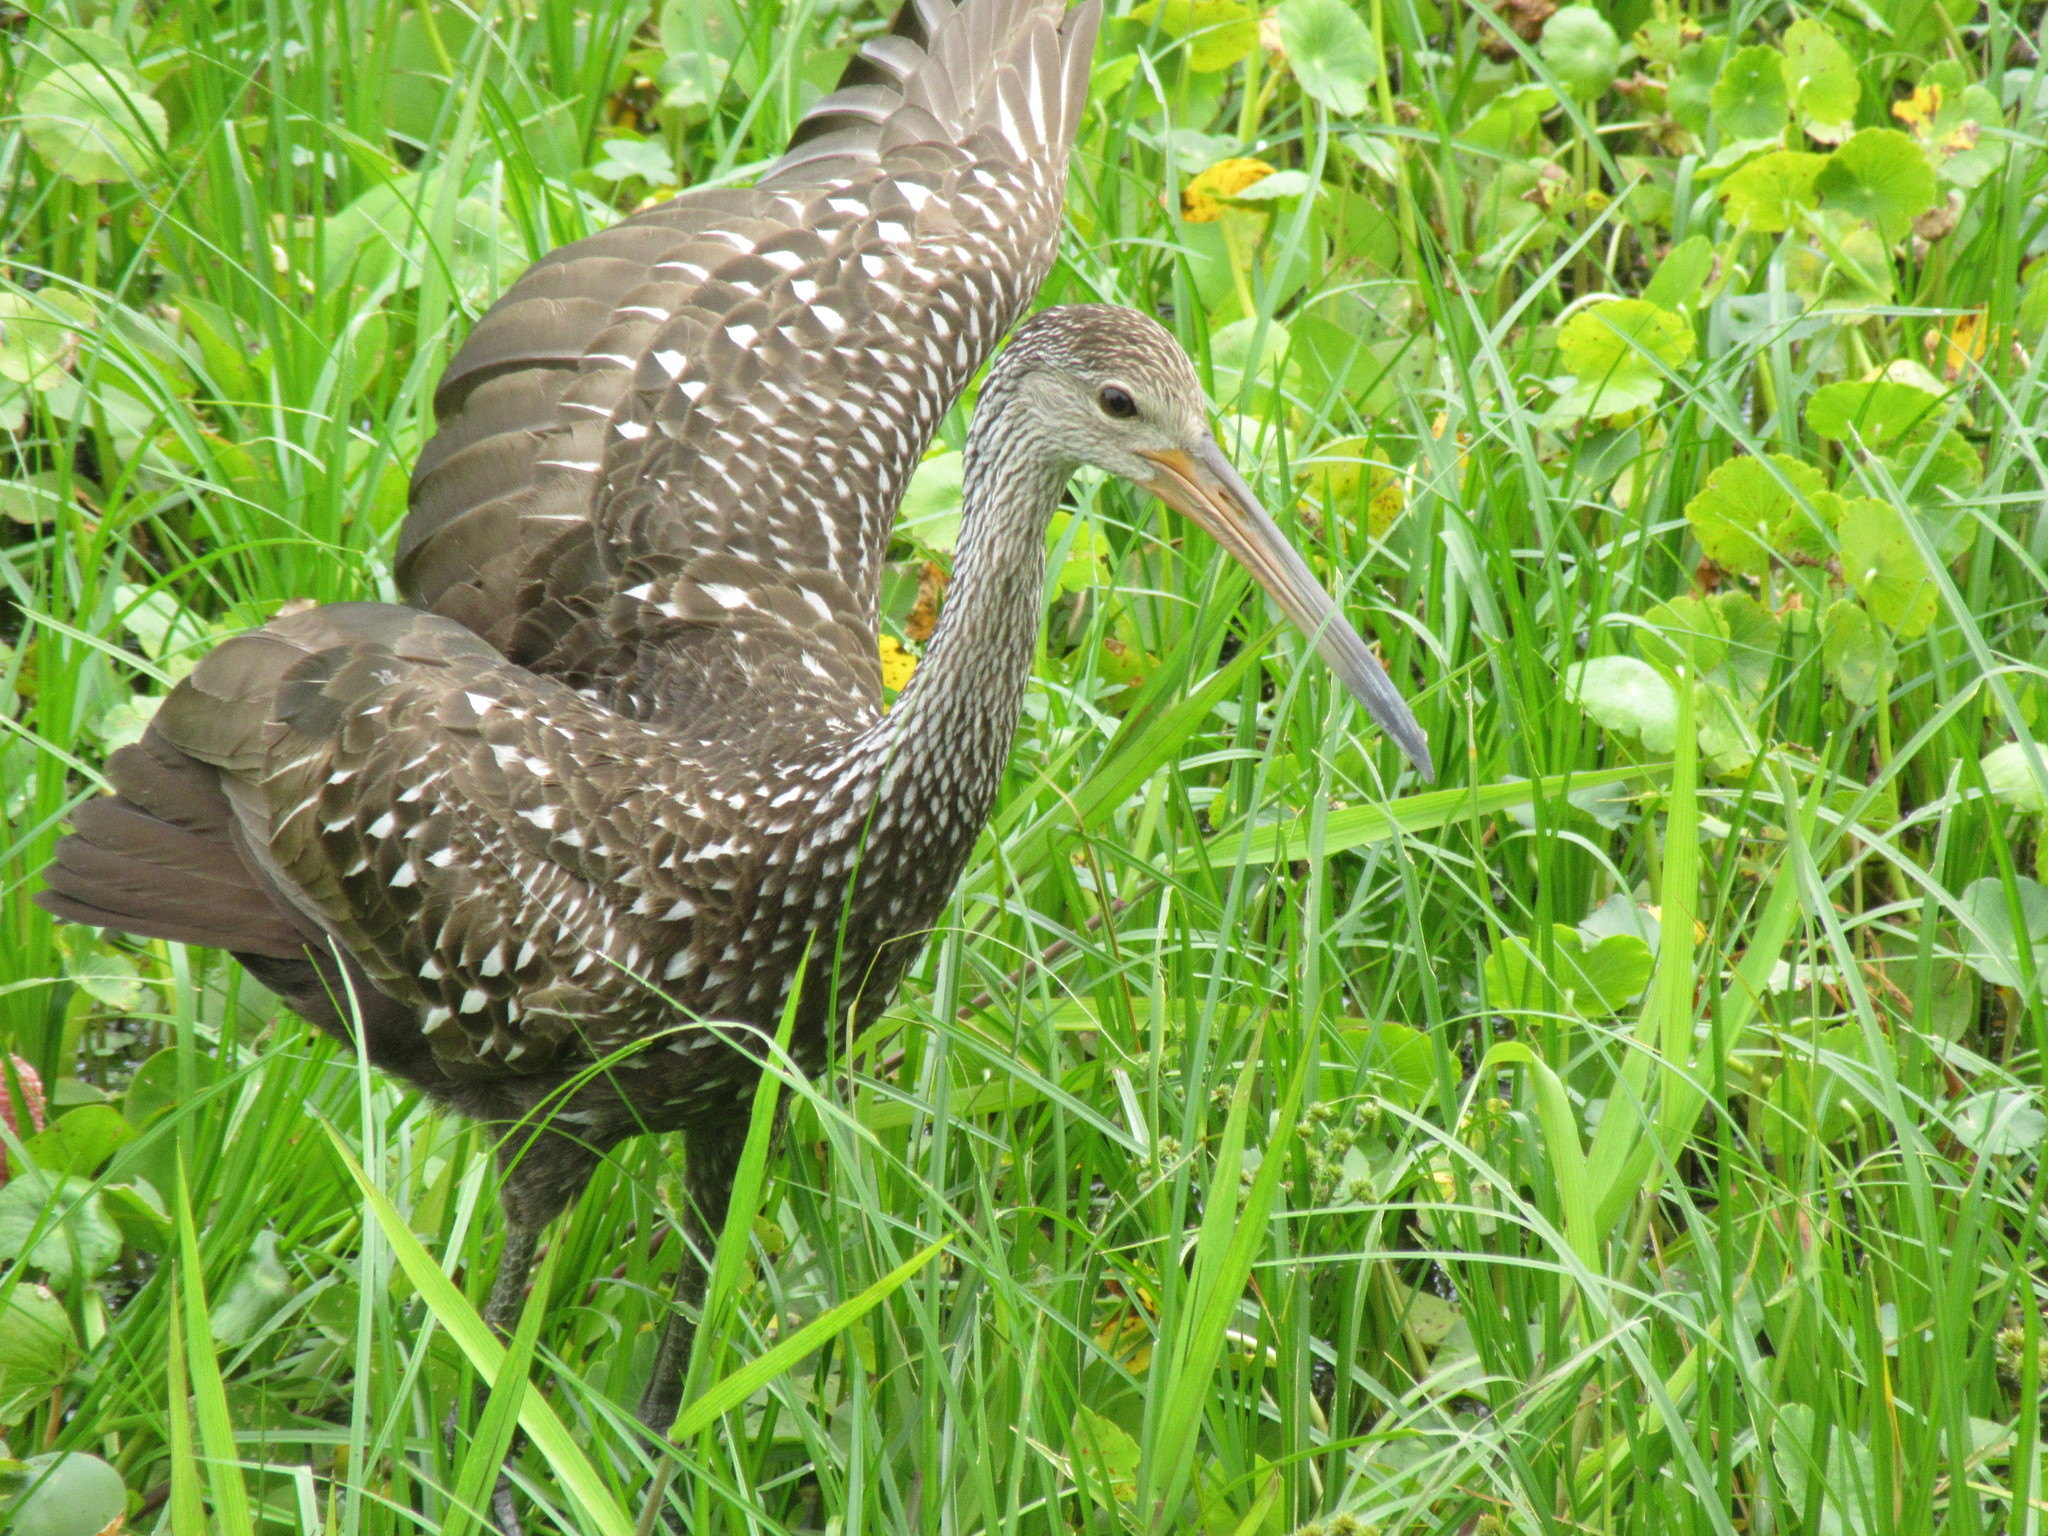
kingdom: Animalia
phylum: Chordata
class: Aves
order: Gruiformes
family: Aramidae
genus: Aramus
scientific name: Aramus guarauna
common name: Limpkin
